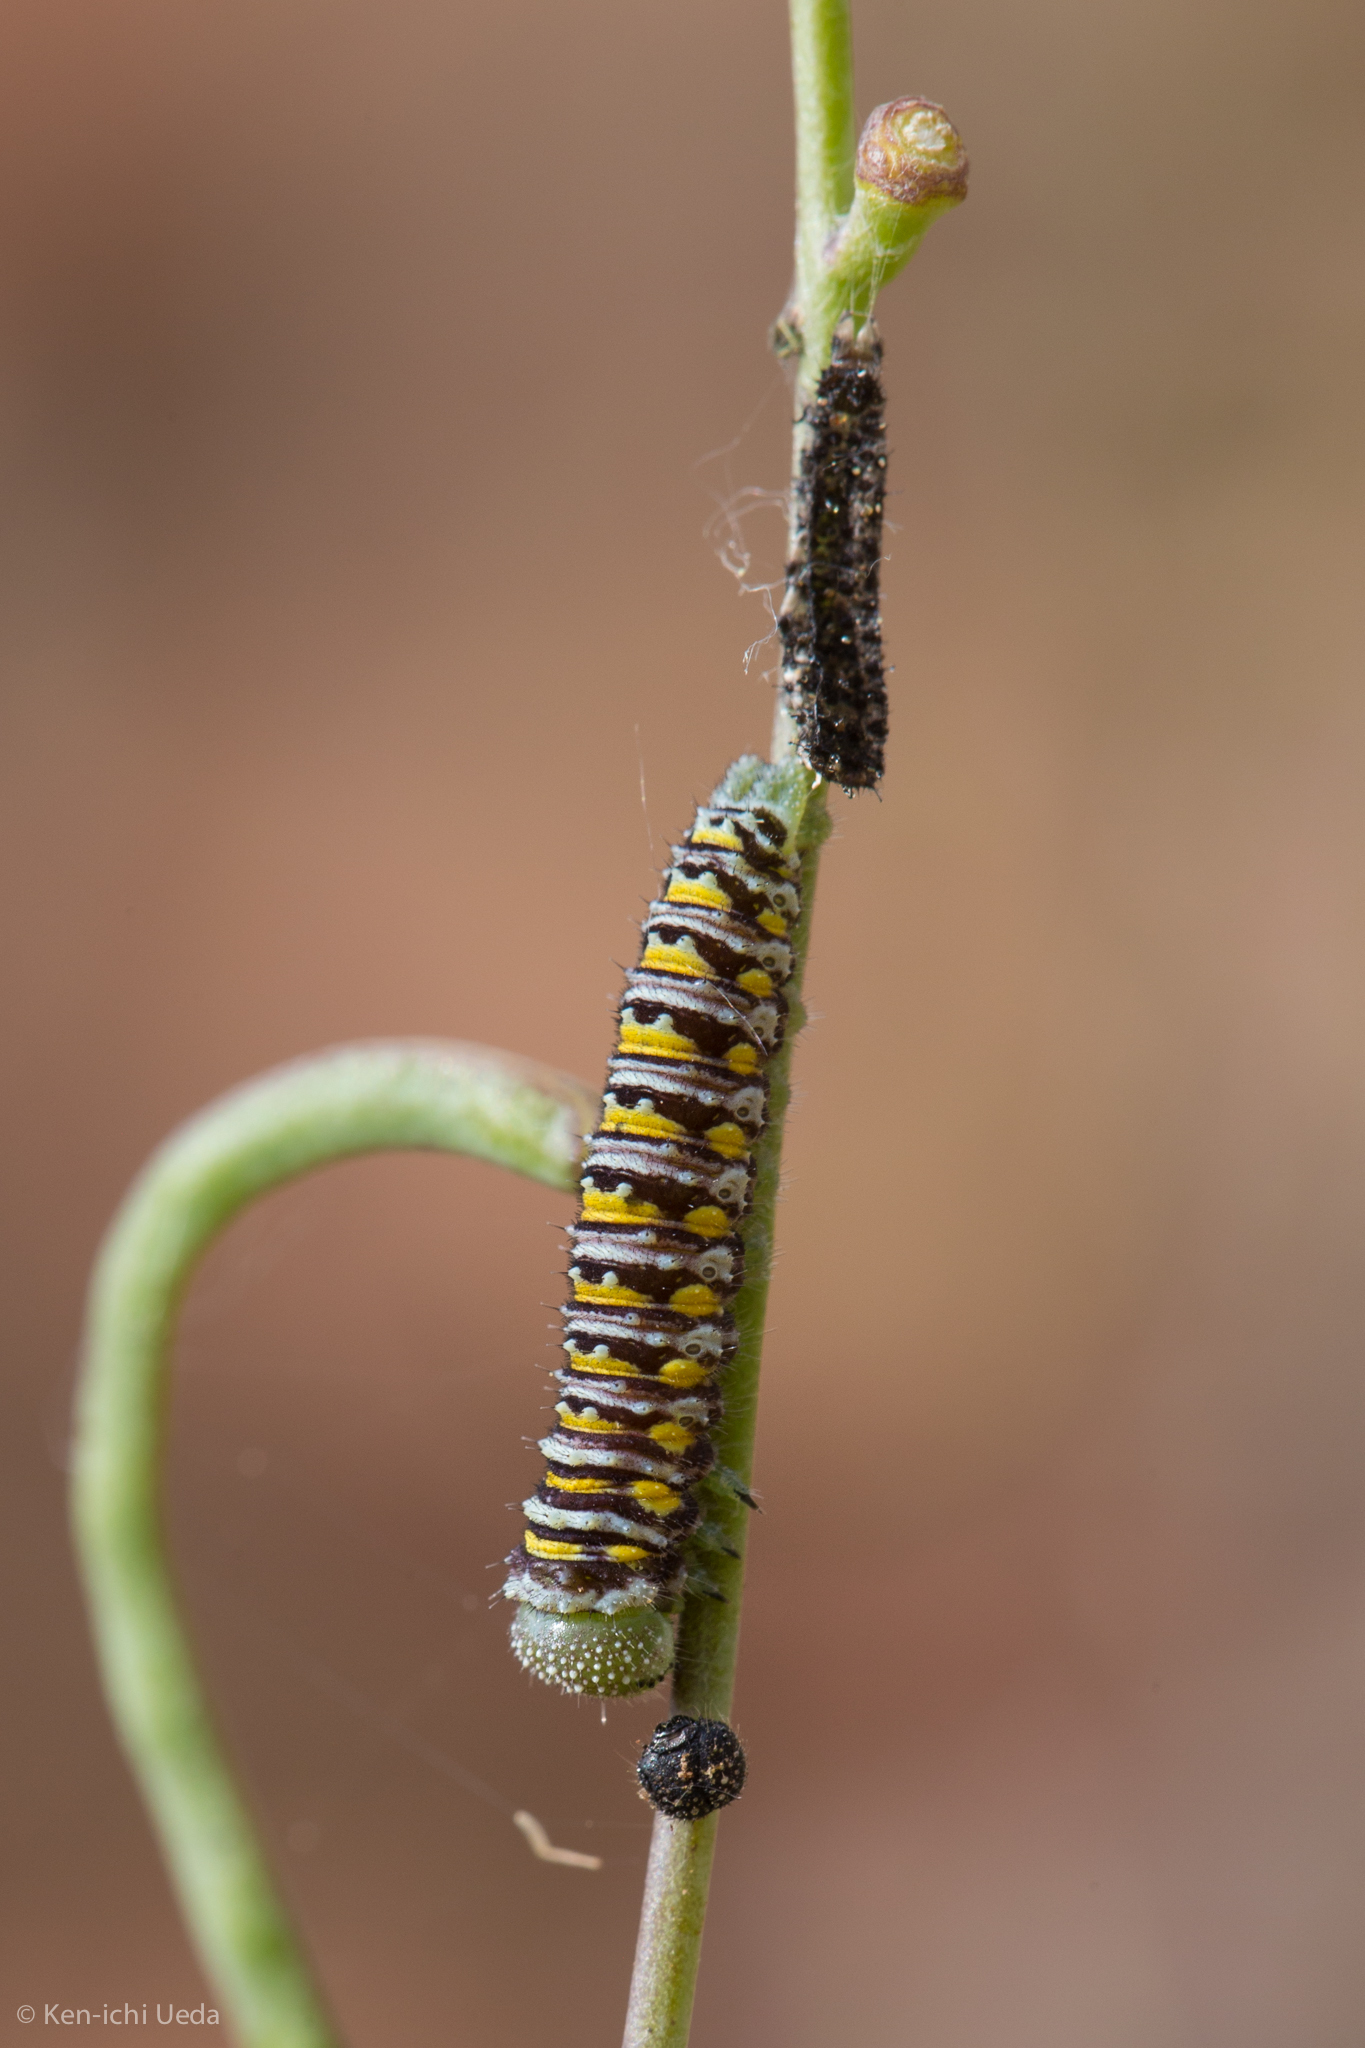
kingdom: Animalia
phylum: Arthropoda
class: Insecta
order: Lepidoptera
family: Pieridae
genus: Pontia
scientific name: Pontia sisymbrii
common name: California white
